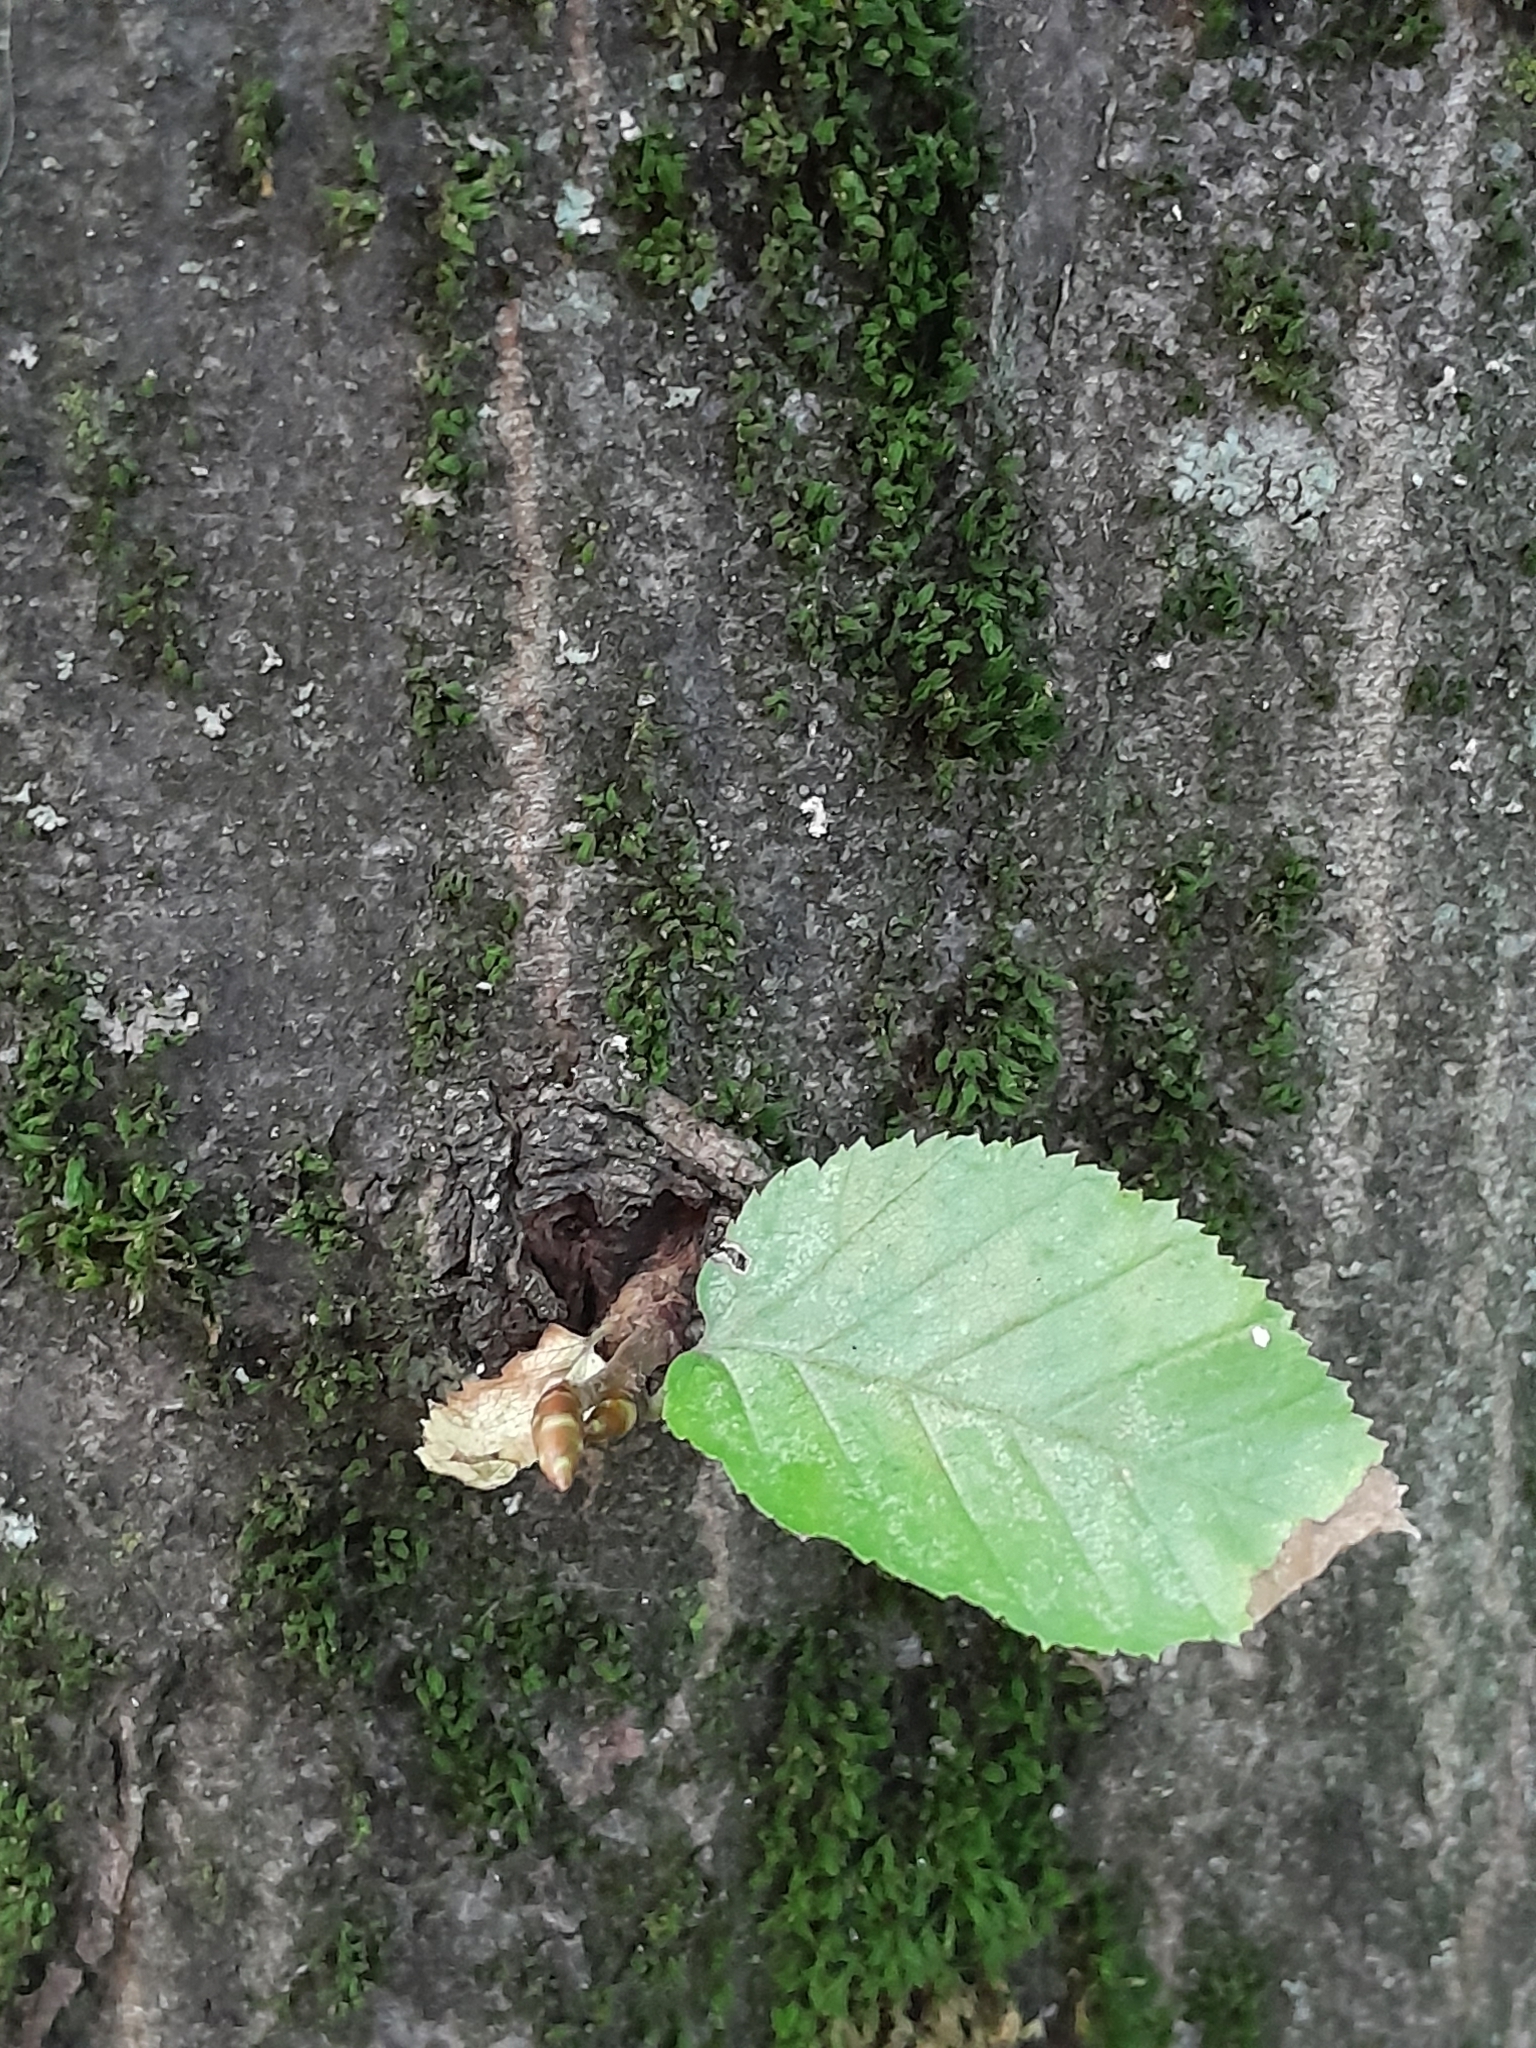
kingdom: Plantae
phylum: Tracheophyta
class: Magnoliopsida
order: Fagales
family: Betulaceae
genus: Carpinus
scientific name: Carpinus betulus
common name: Hornbeam
